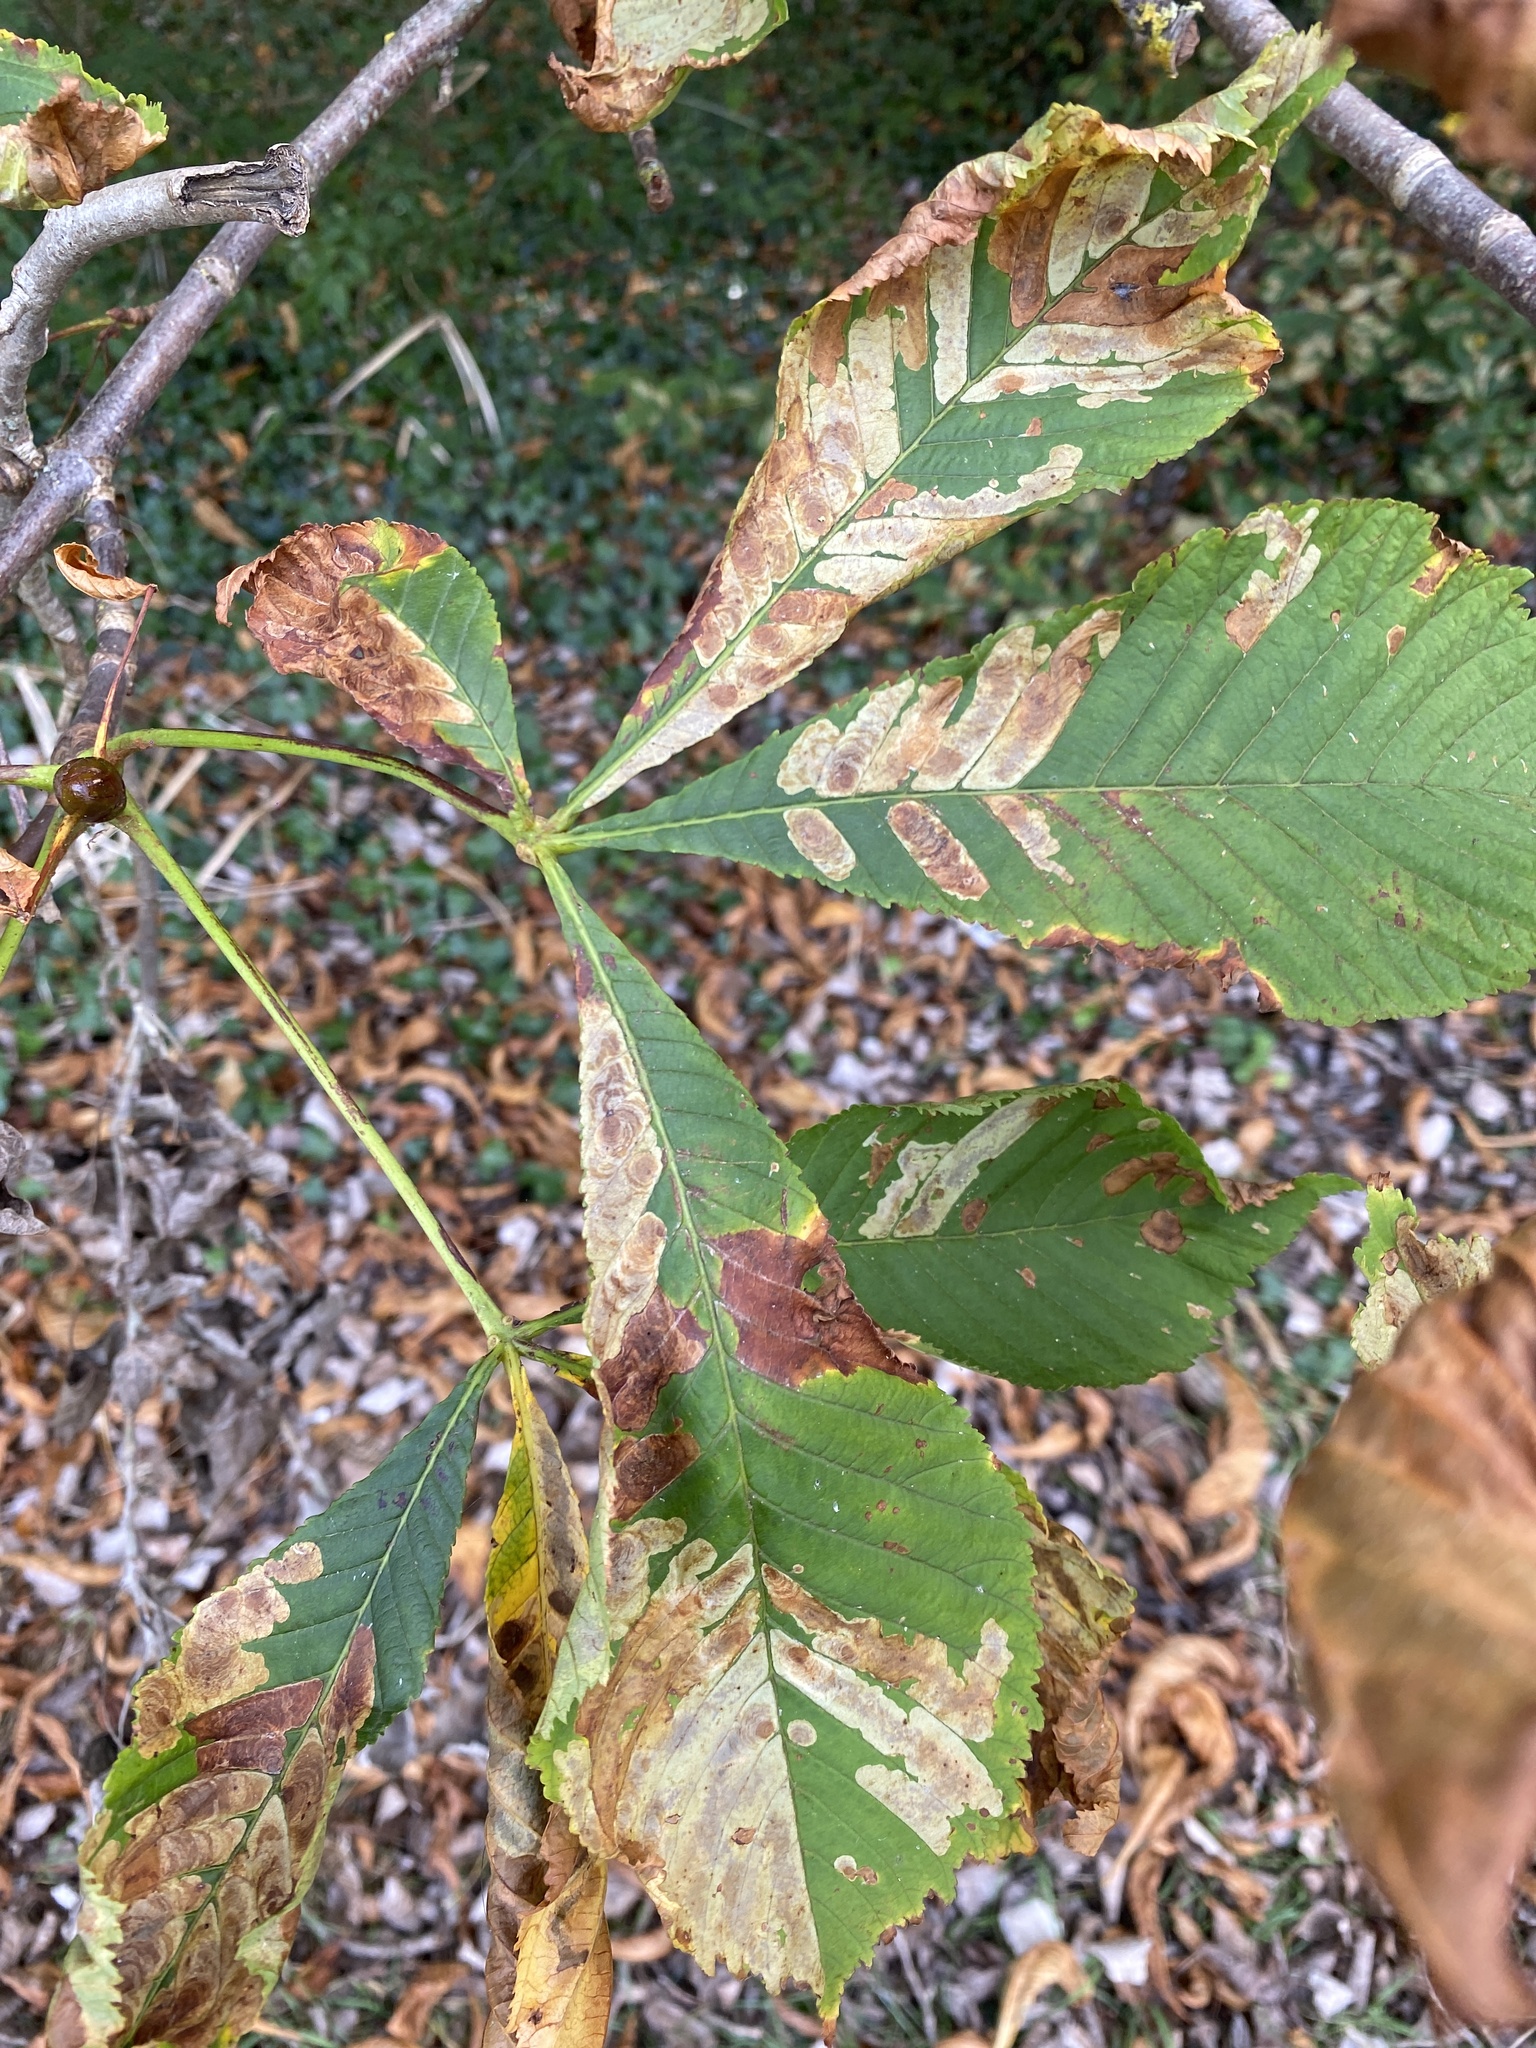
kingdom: Animalia
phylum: Arthropoda
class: Insecta
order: Lepidoptera
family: Gracillariidae
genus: Cameraria
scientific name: Cameraria ohridella
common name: Horse-chestnut leaf-miner
